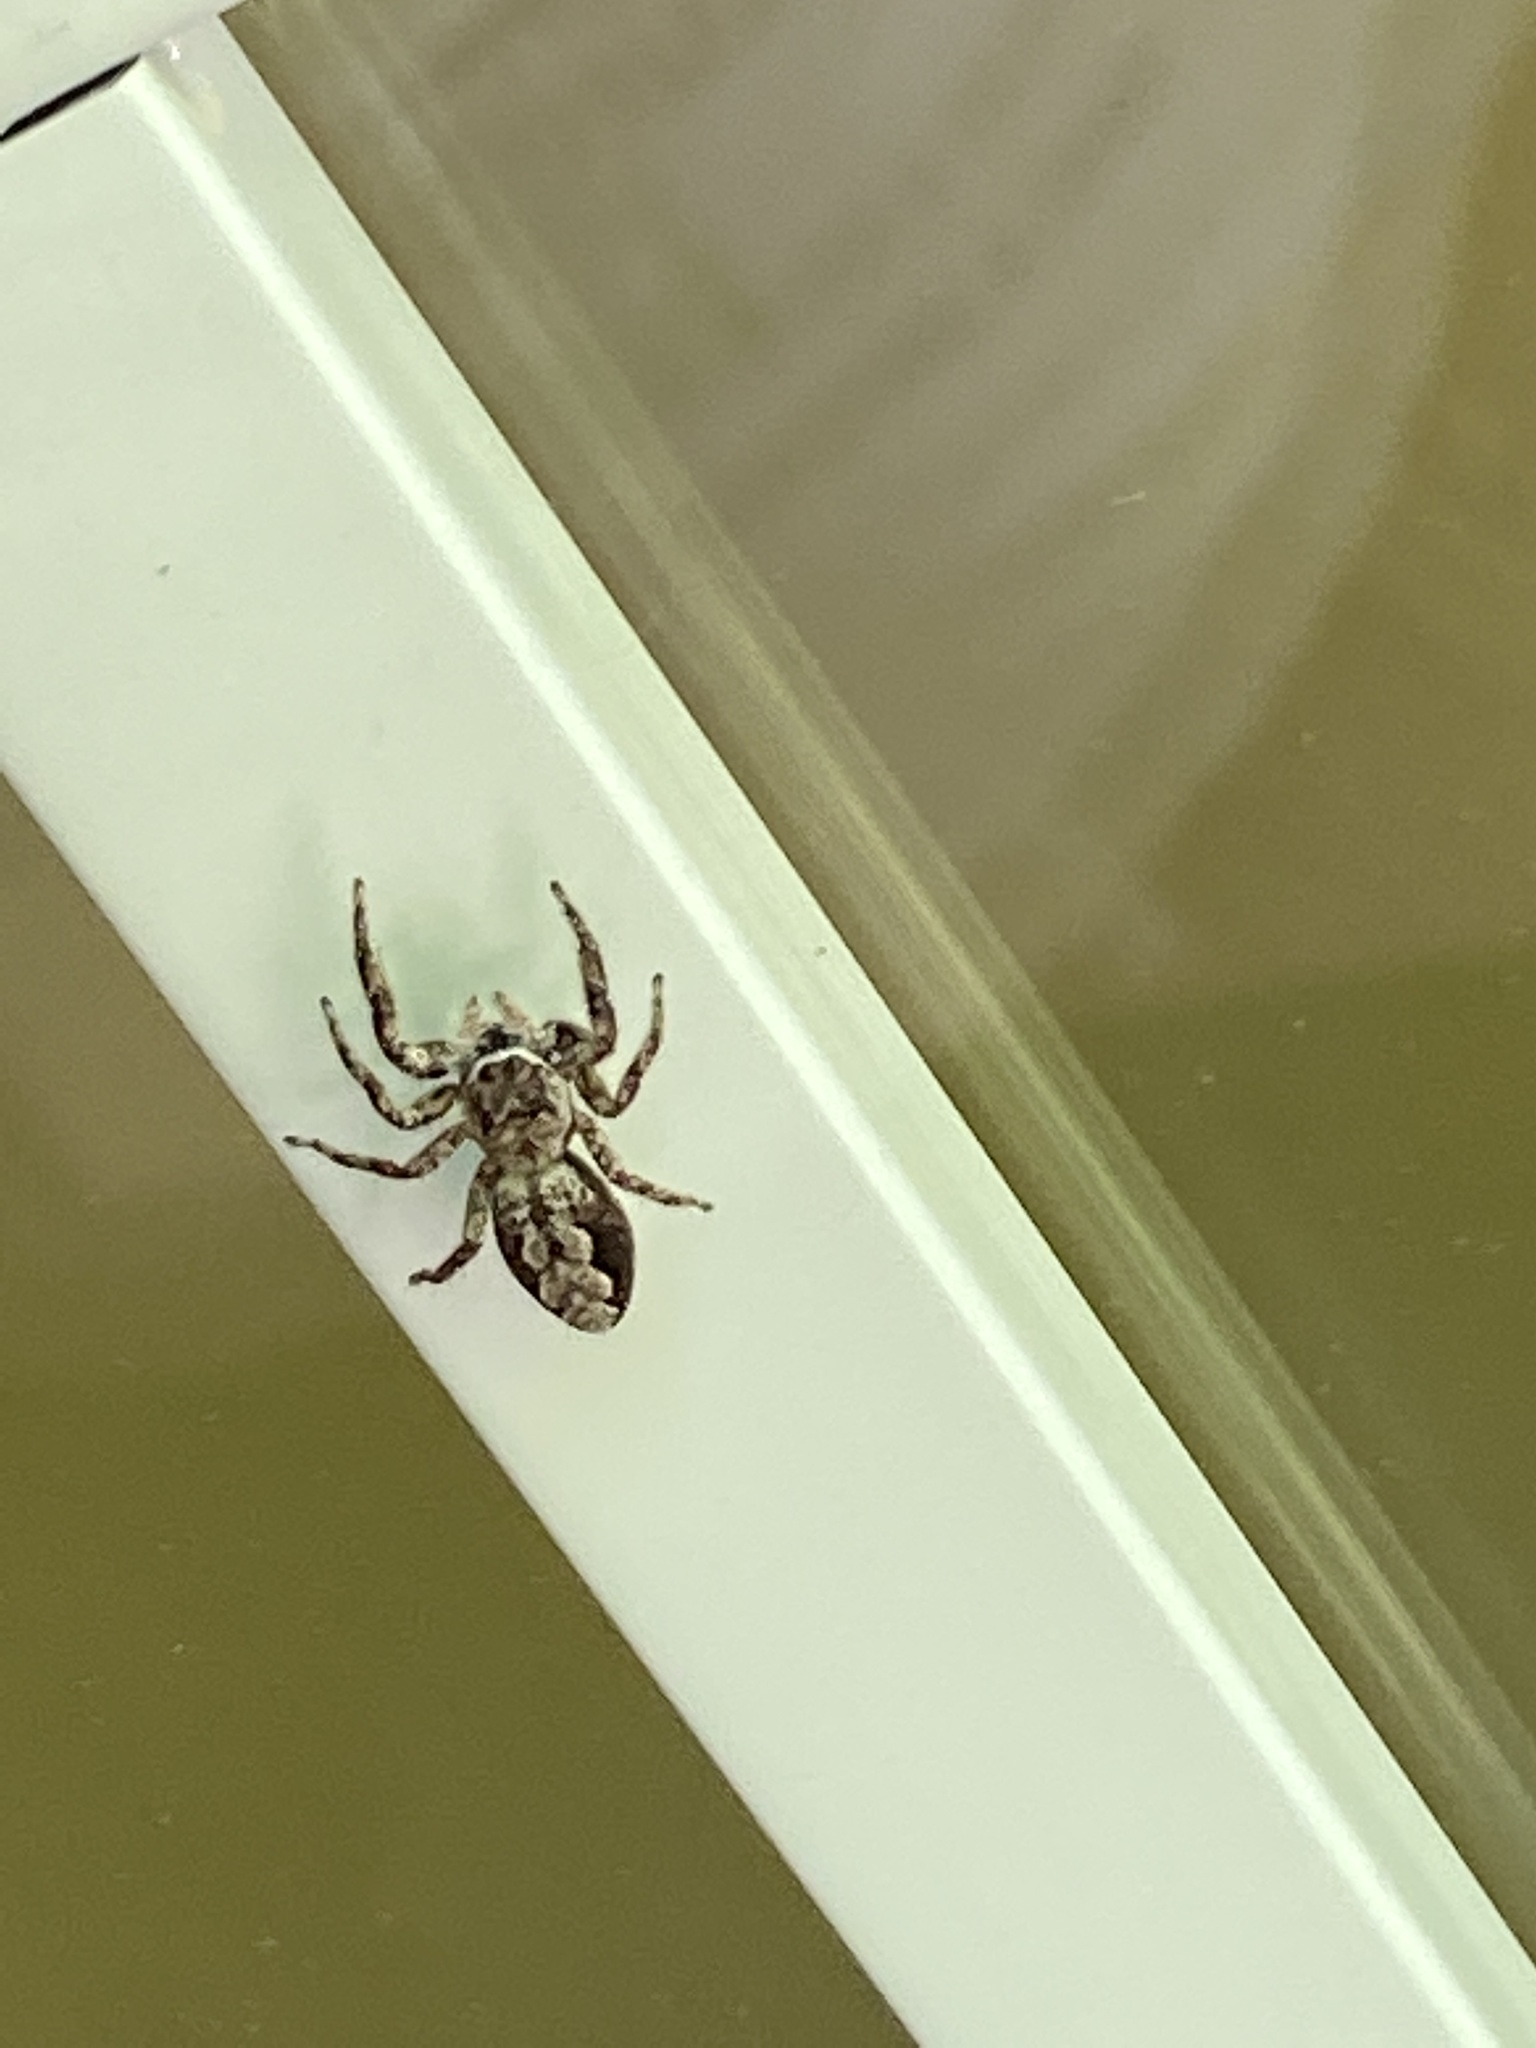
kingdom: Animalia
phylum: Arthropoda
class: Arachnida
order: Araneae
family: Salticidae
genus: Platycryptus
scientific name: Platycryptus undatus
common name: Tan jumping spider
